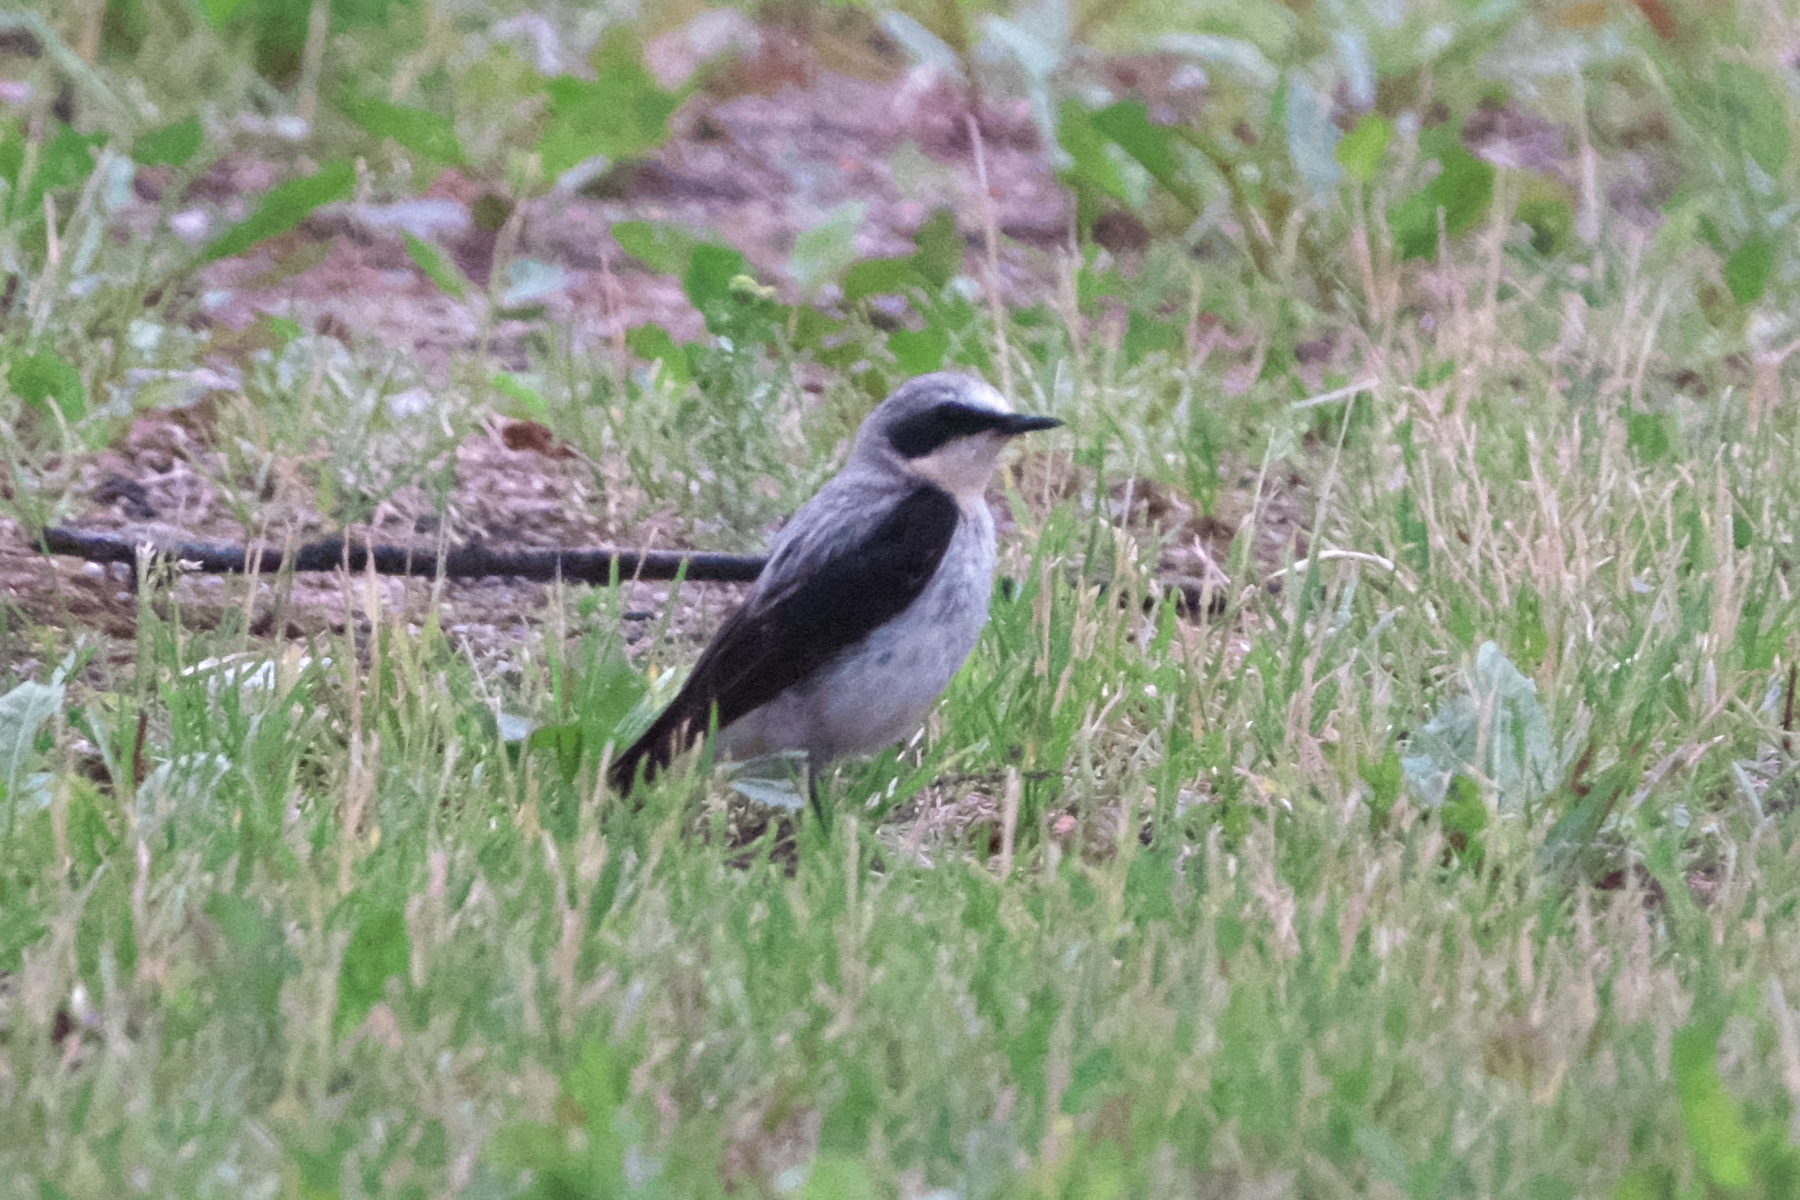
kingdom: Animalia
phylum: Chordata
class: Aves
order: Passeriformes
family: Muscicapidae
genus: Oenanthe
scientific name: Oenanthe oenanthe
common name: Northern wheatear
